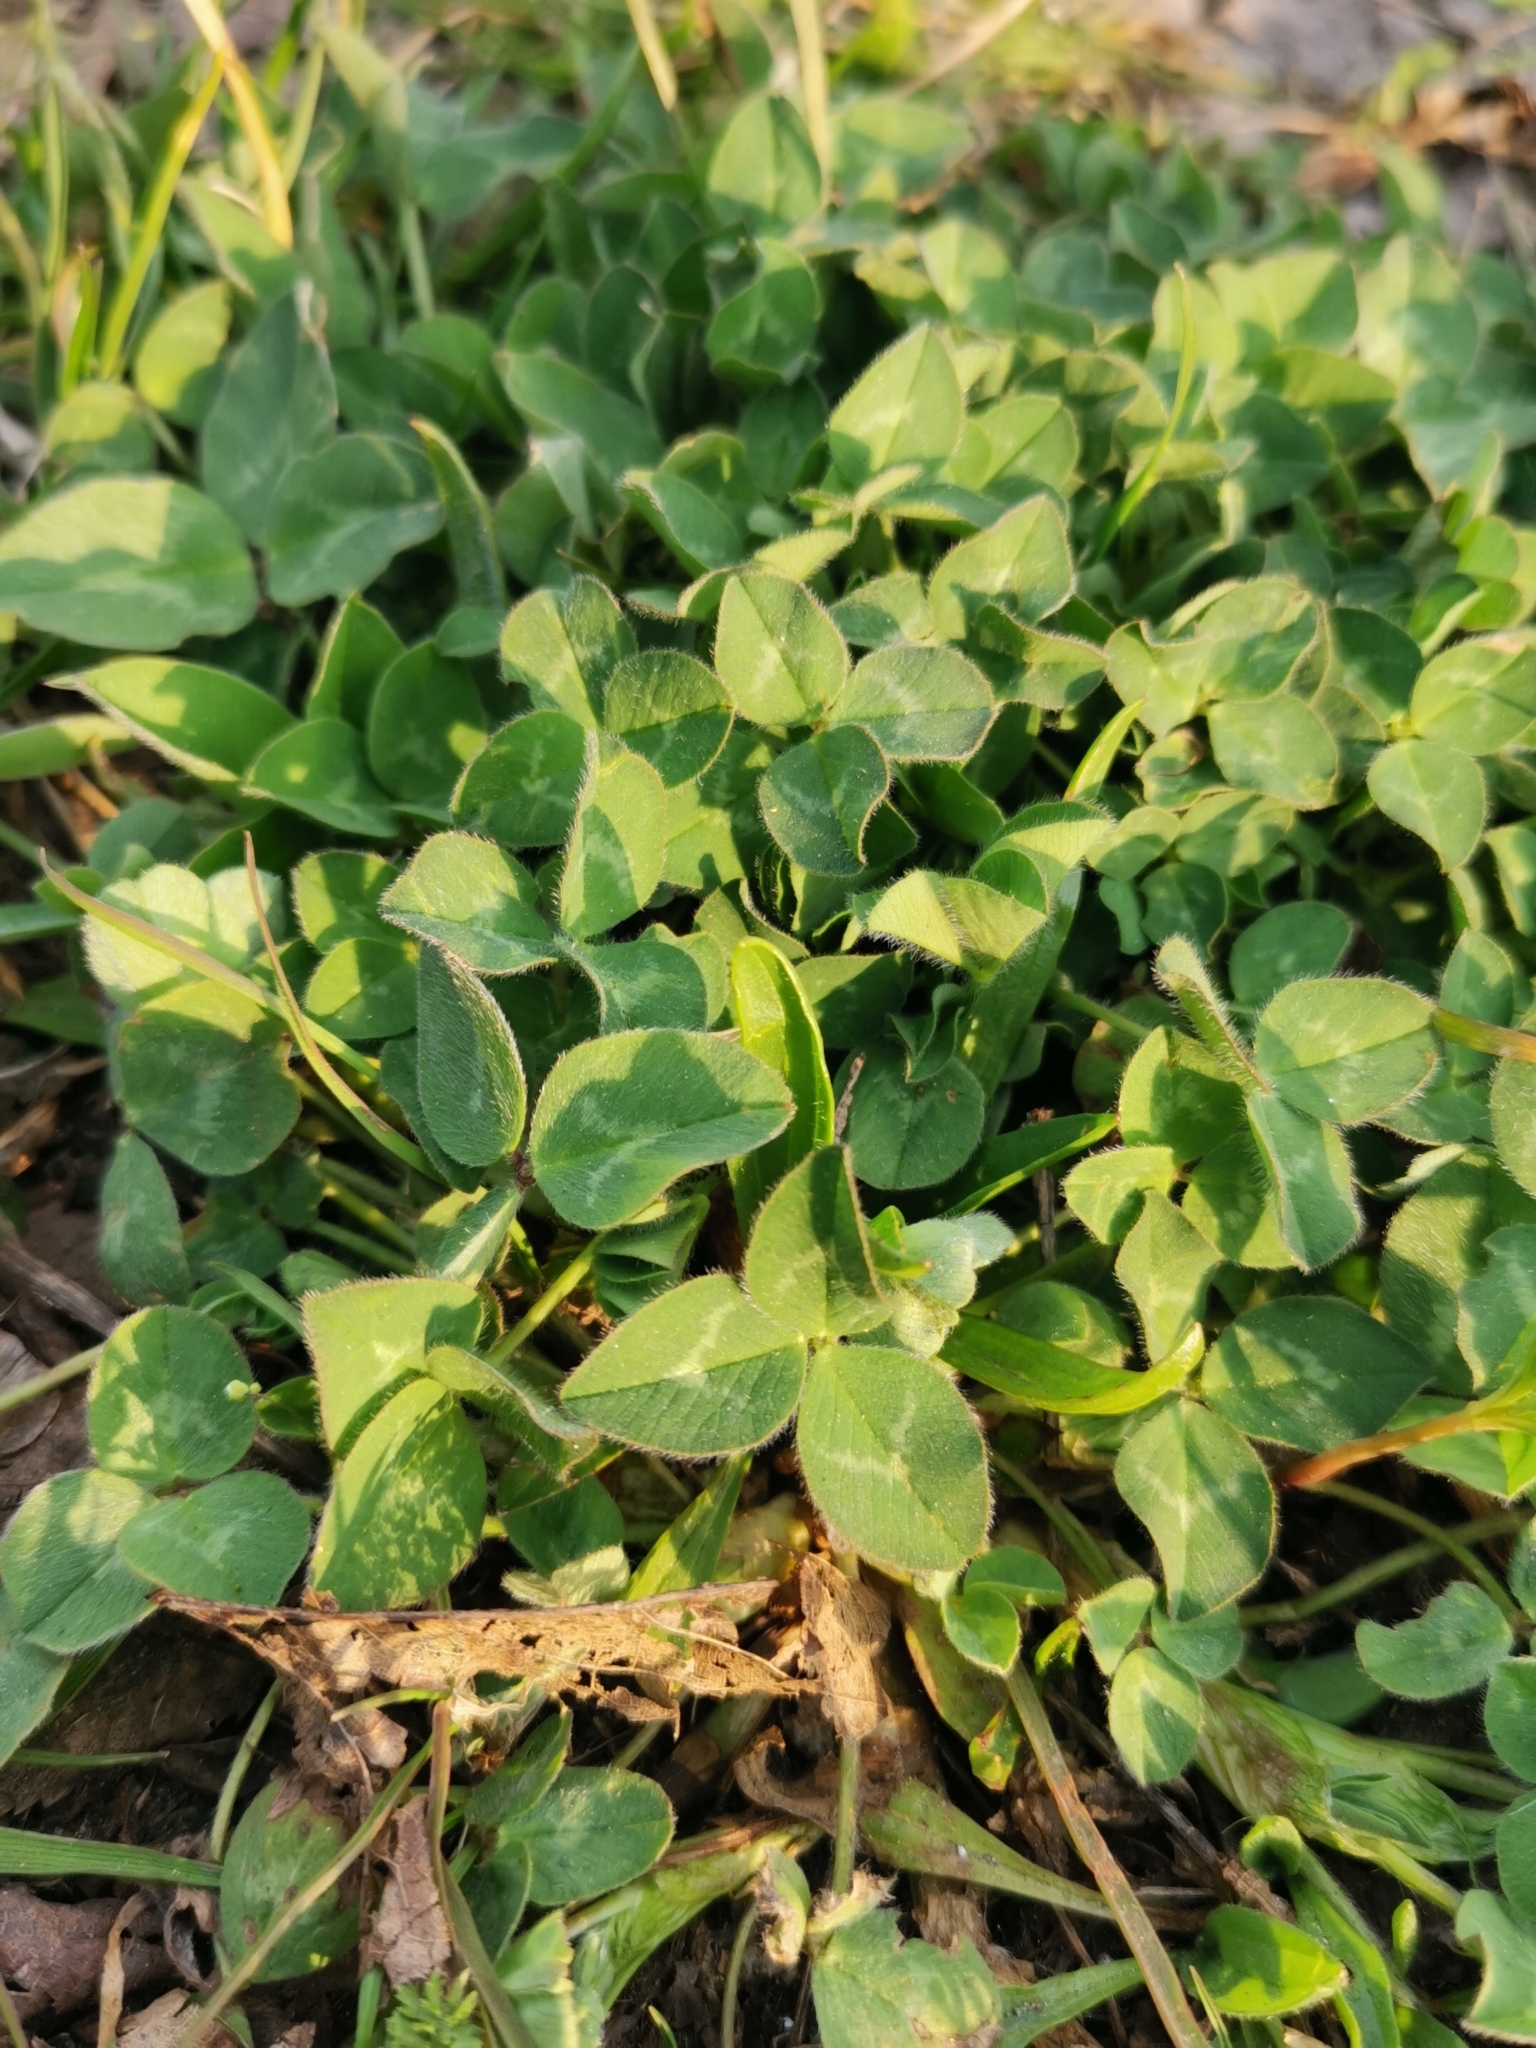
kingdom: Plantae
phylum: Tracheophyta
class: Magnoliopsida
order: Fabales
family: Fabaceae
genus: Trifolium
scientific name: Trifolium pratense
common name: Red clover
